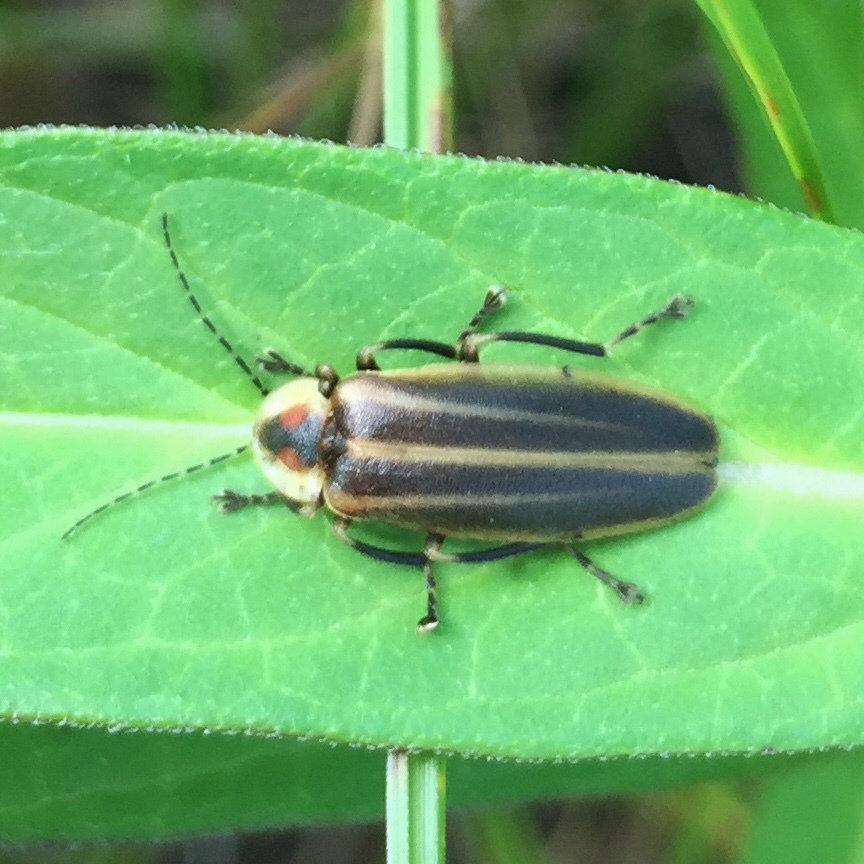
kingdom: Animalia
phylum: Arthropoda
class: Insecta
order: Coleoptera
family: Lampyridae
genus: Photuris
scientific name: Photuris
